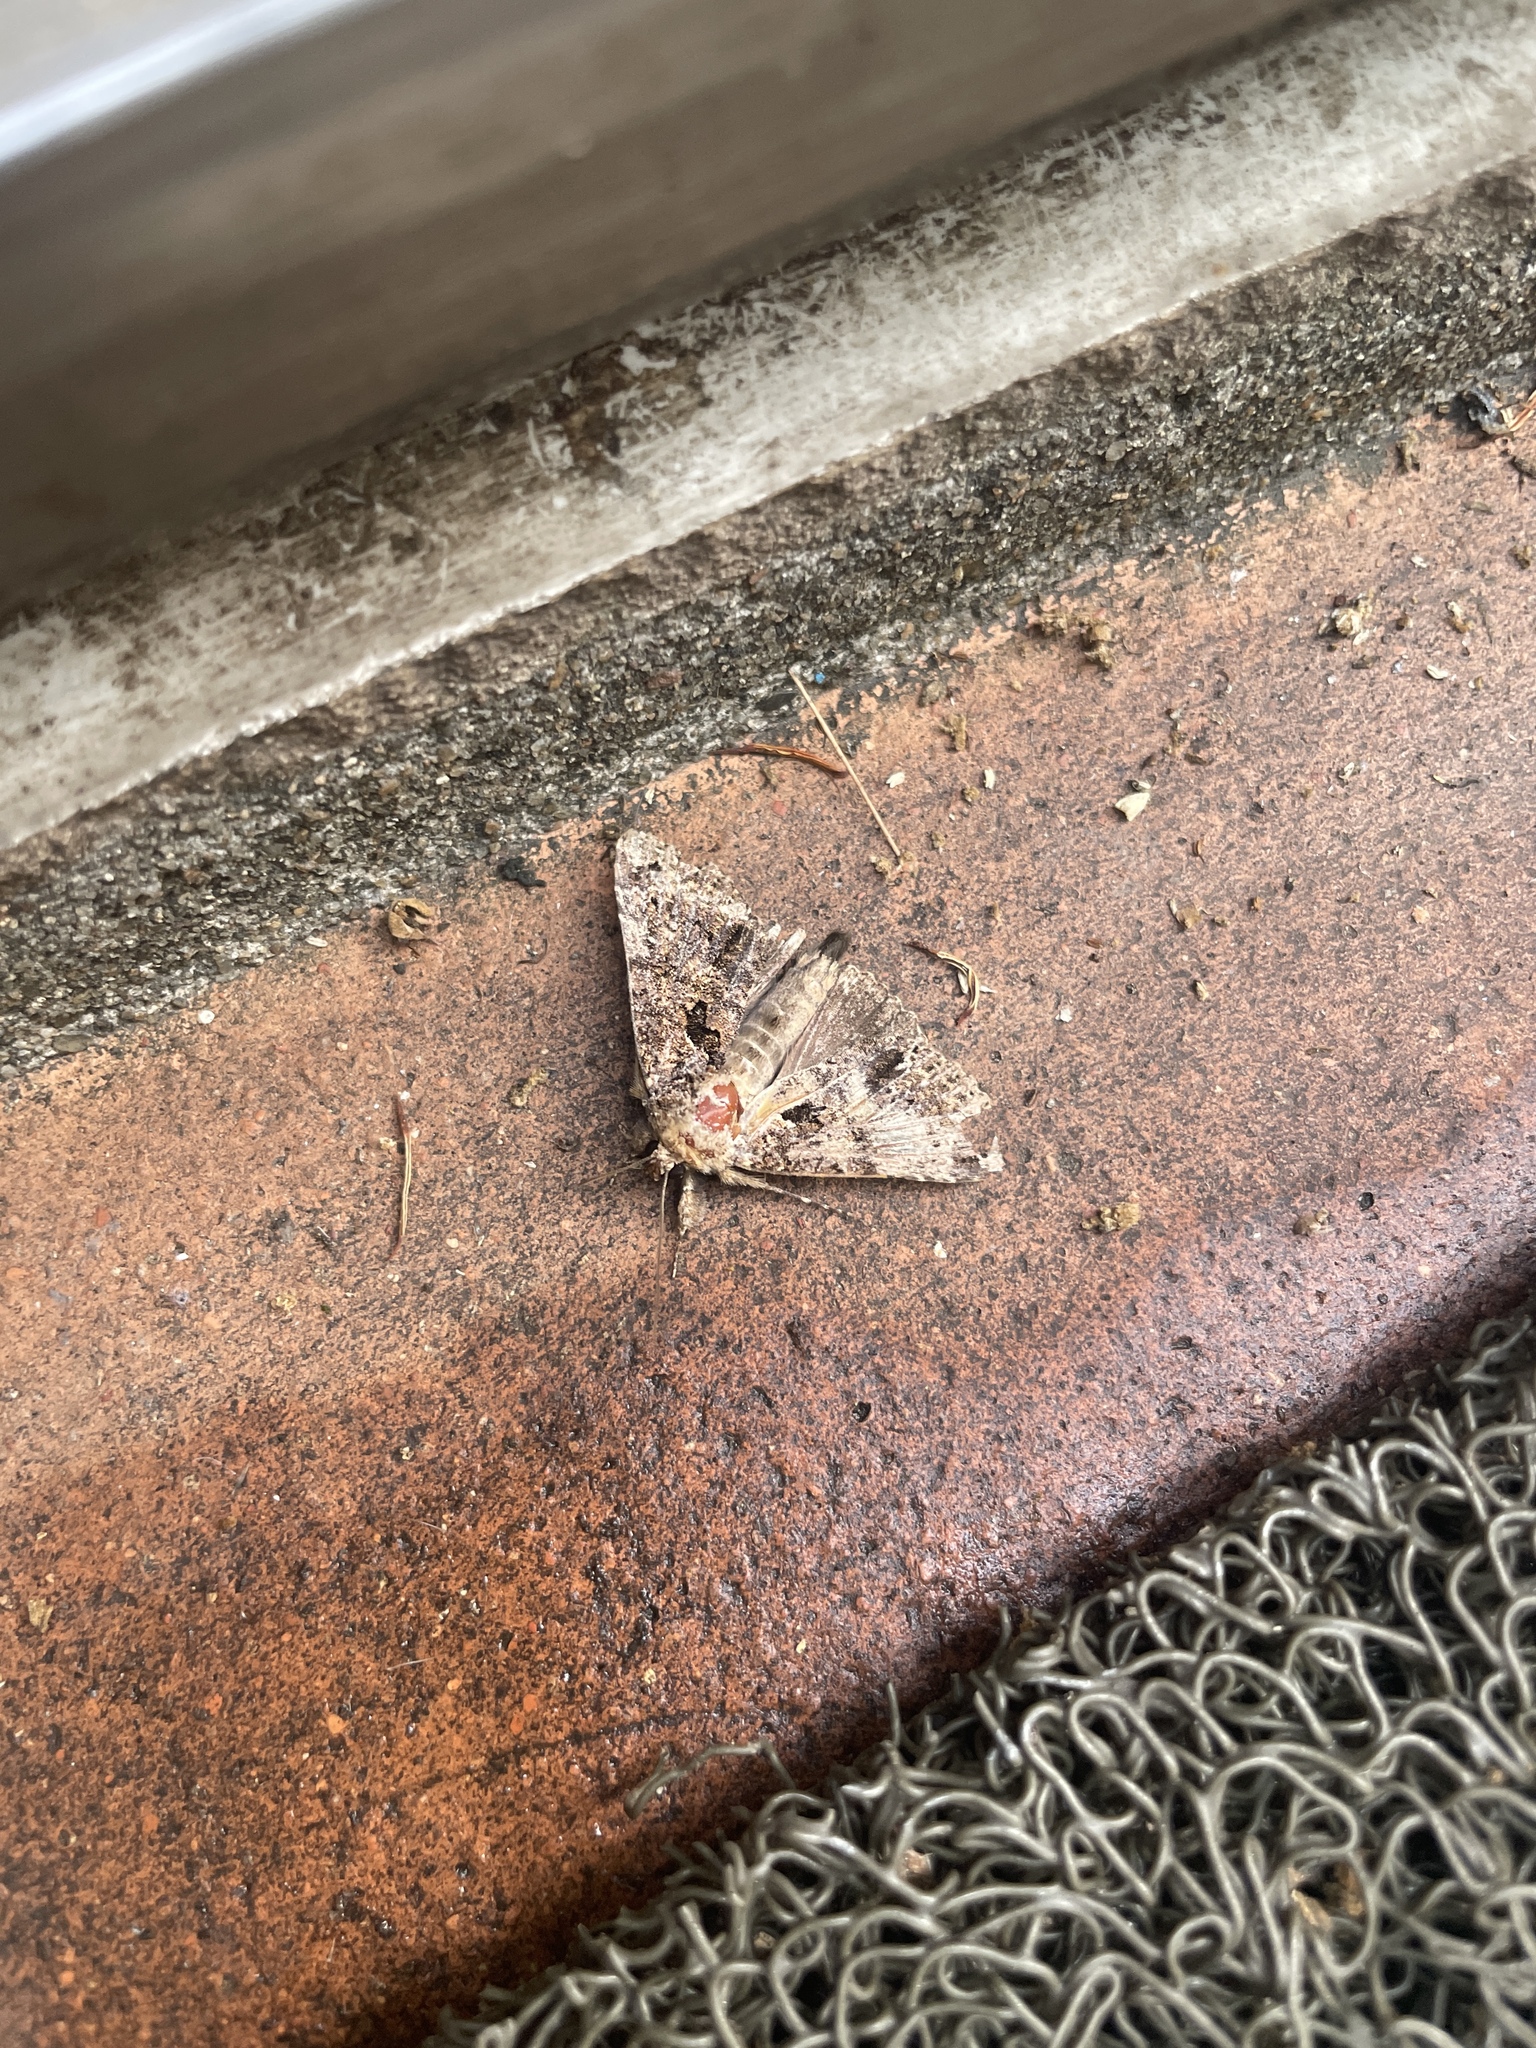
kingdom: Animalia
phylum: Arthropoda
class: Insecta
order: Lepidoptera
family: Erebidae
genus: Erygia
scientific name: Erygia apicalis
